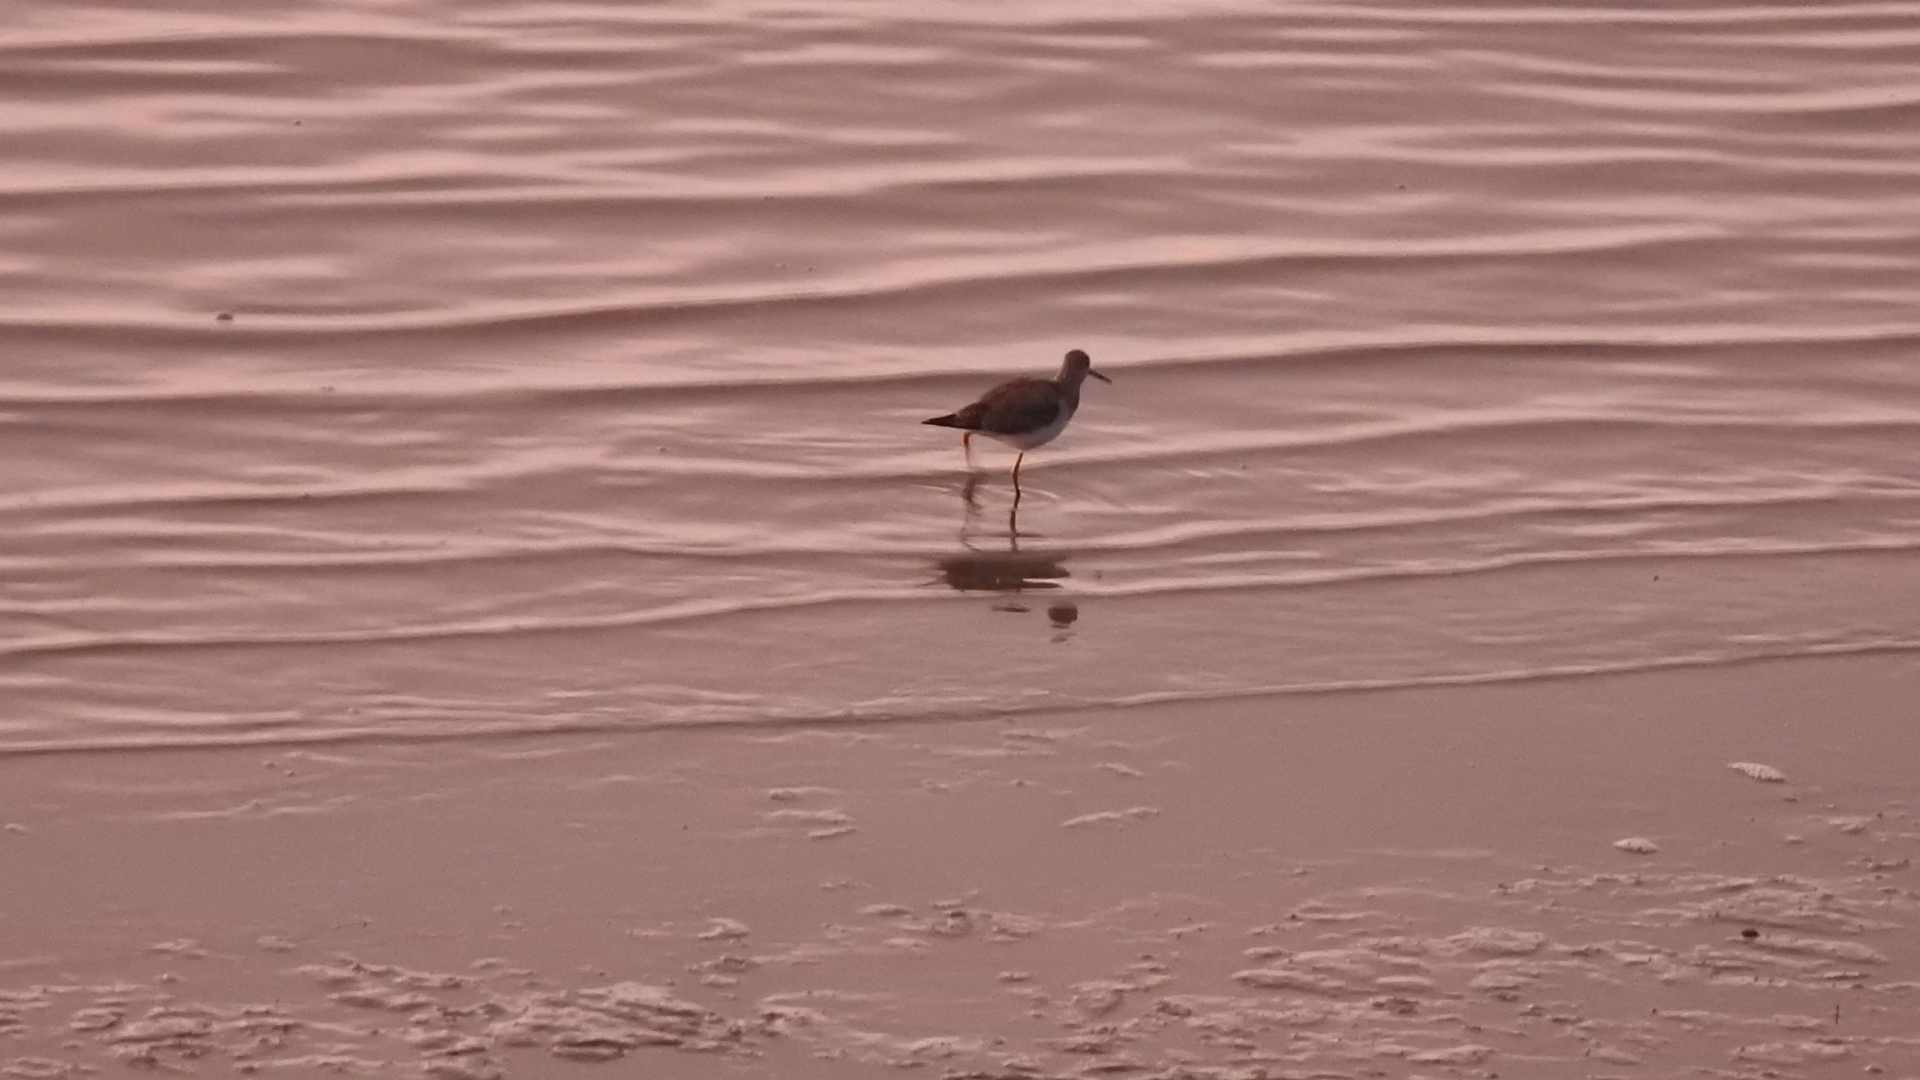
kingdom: Animalia
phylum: Chordata
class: Aves
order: Charadriiformes
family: Scolopacidae
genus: Tringa
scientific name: Tringa melanoleuca
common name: Greater yellowlegs
